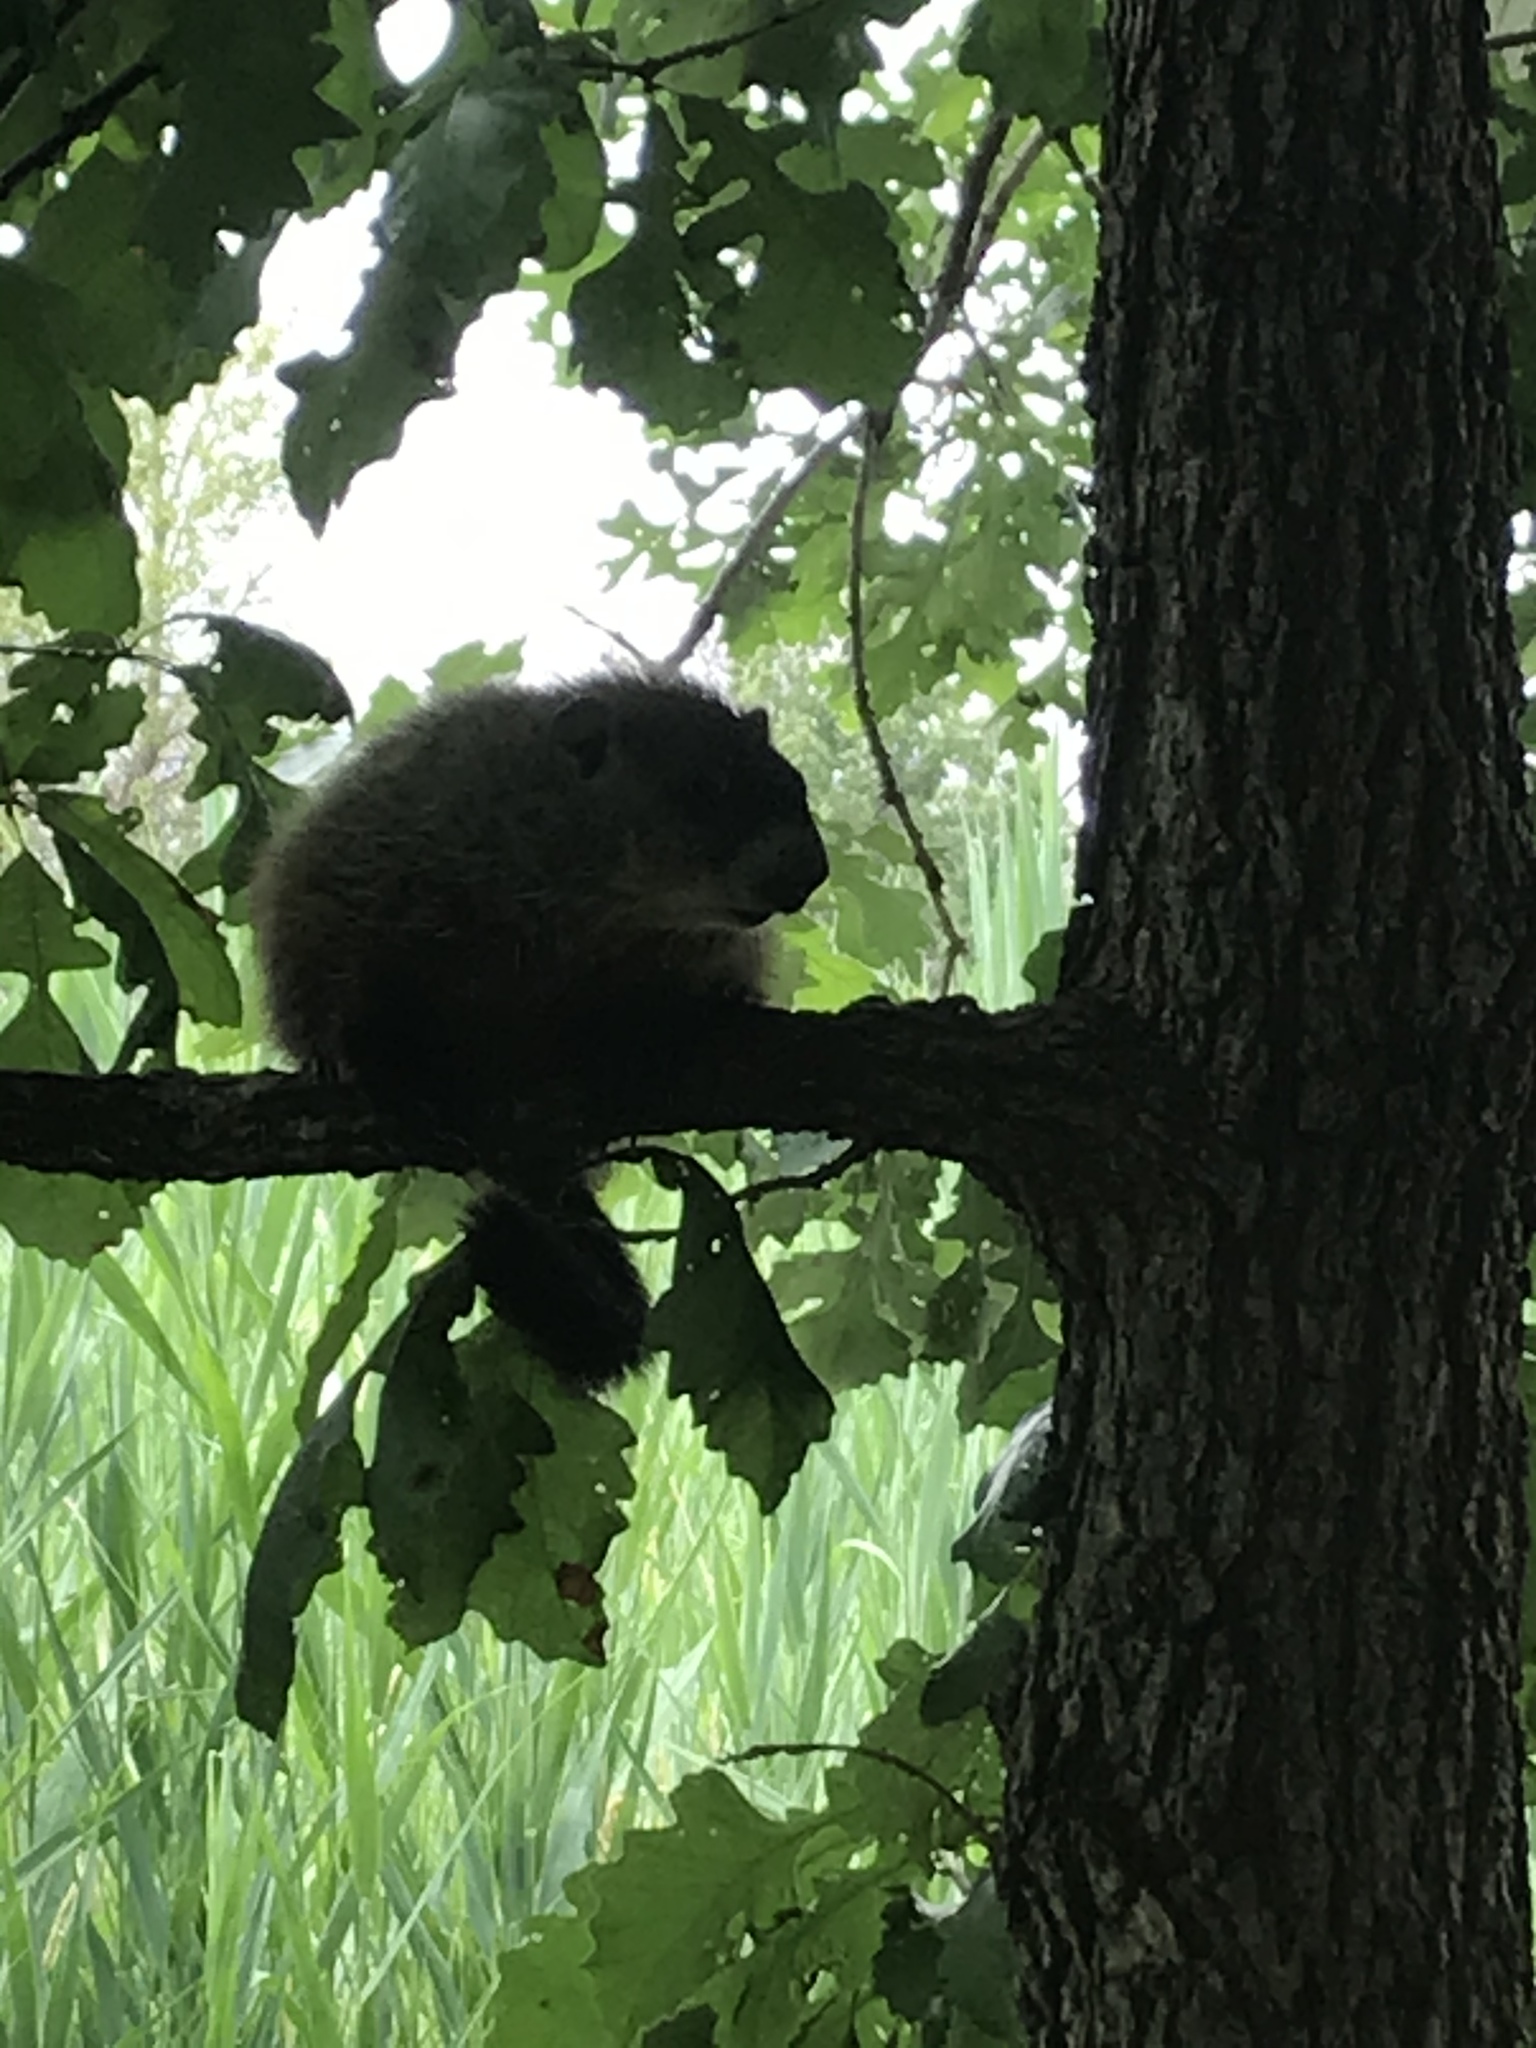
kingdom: Animalia
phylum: Chordata
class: Mammalia
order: Rodentia
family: Sciuridae
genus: Marmota
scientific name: Marmota monax
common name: Groundhog
